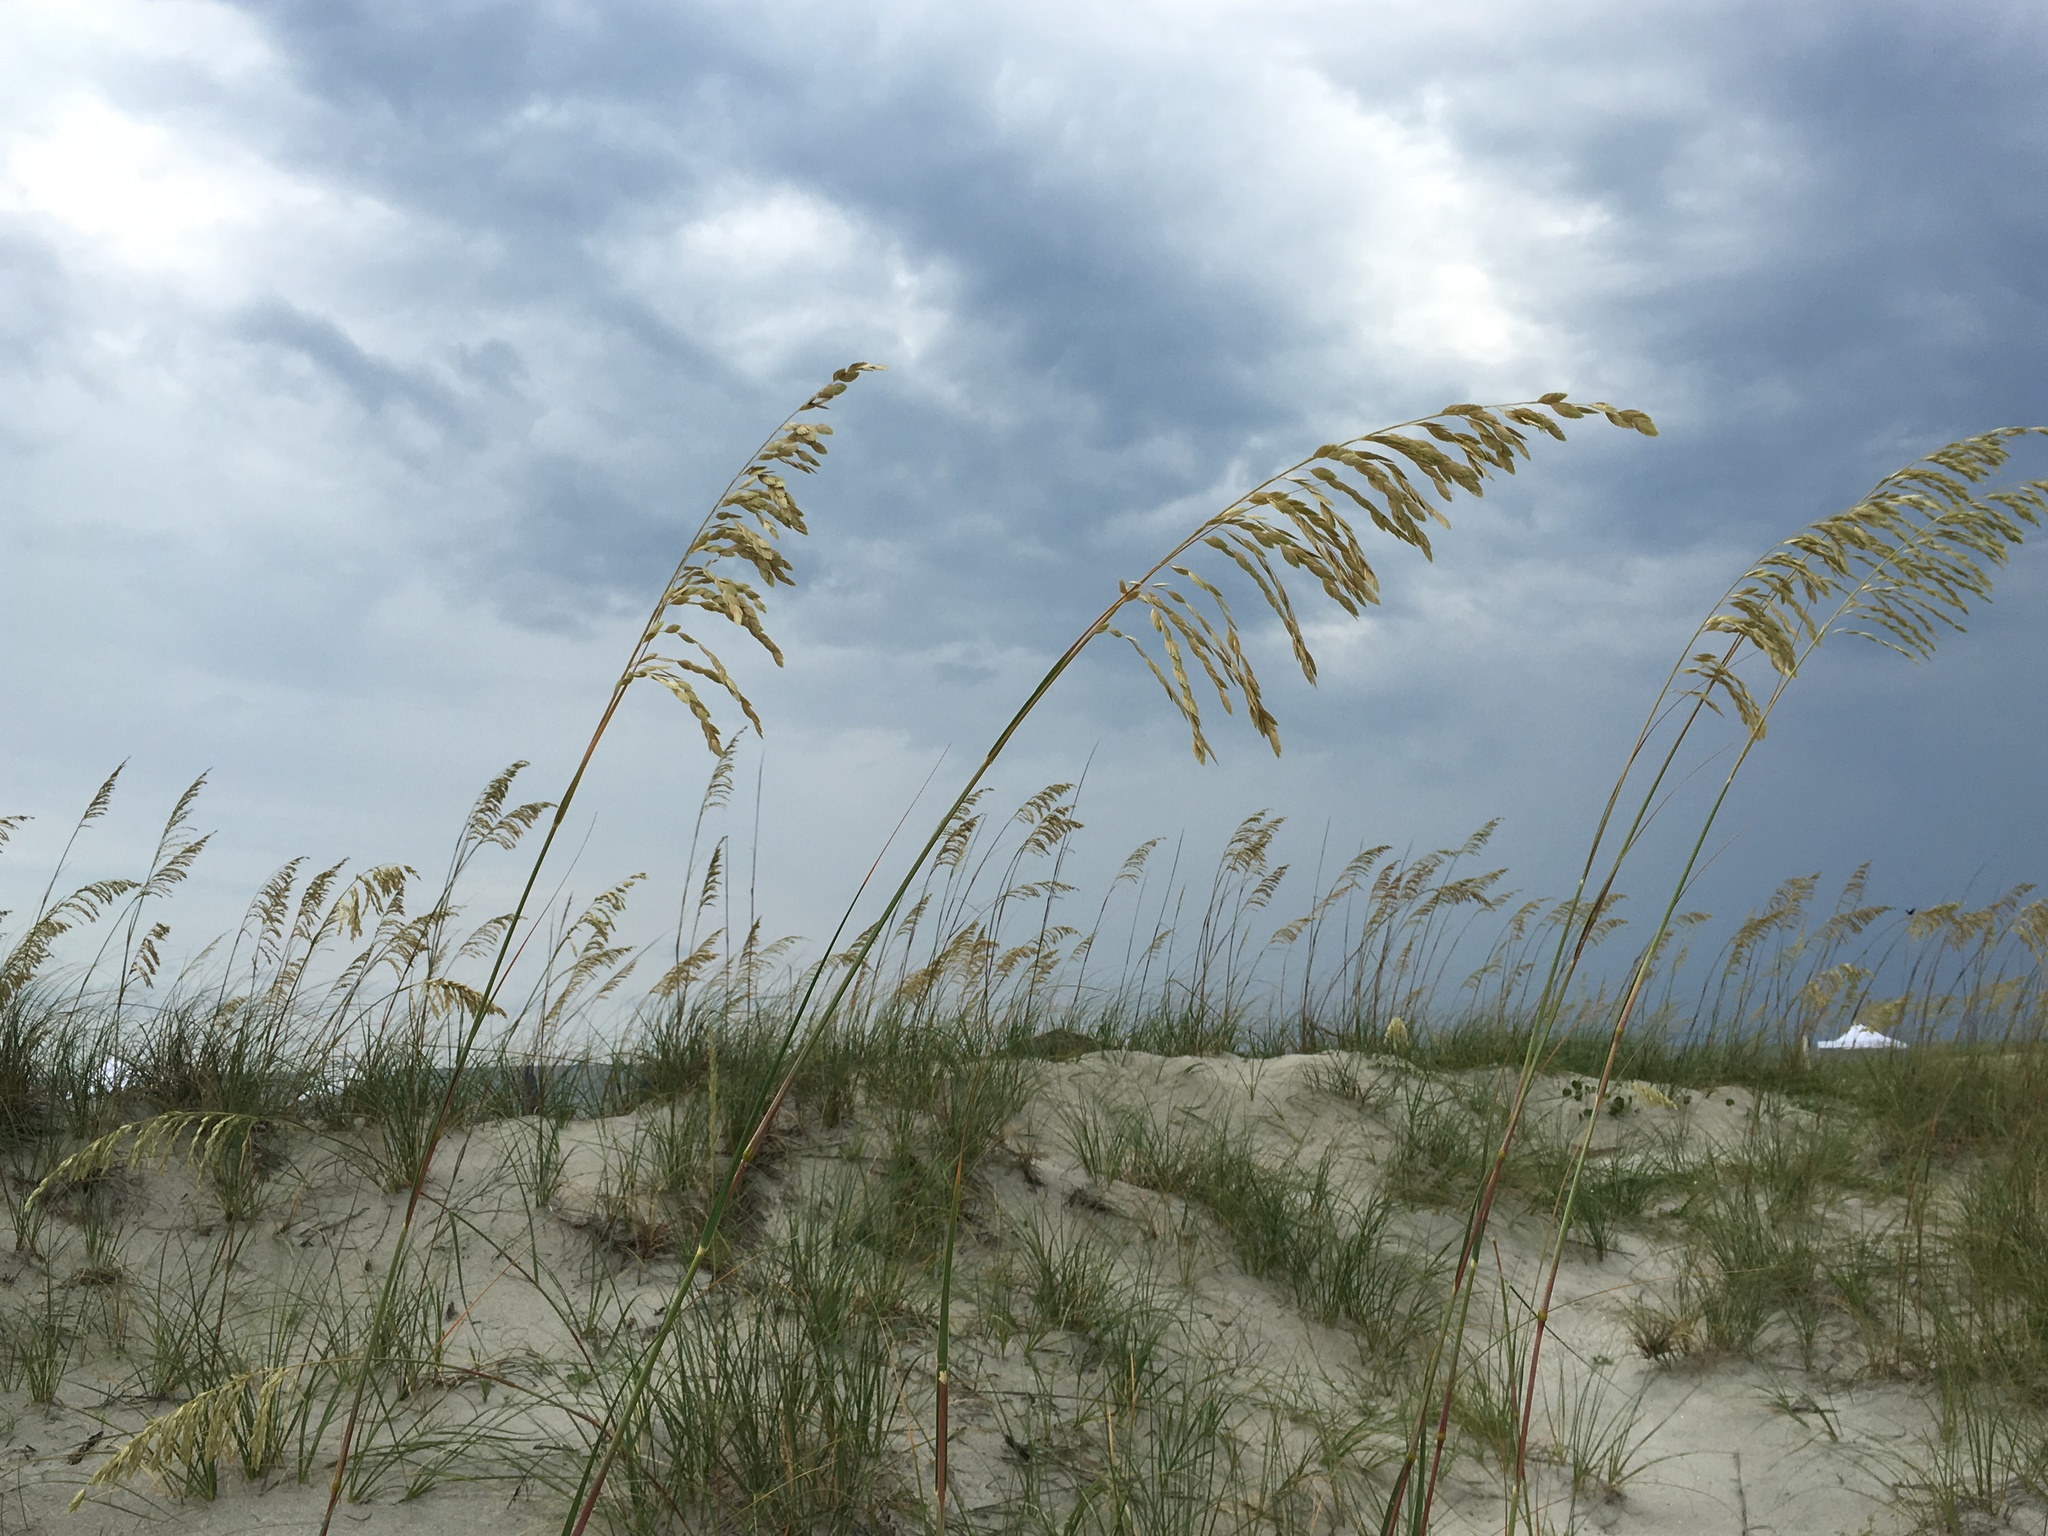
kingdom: Plantae
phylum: Tracheophyta
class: Liliopsida
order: Poales
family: Poaceae
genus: Uniola
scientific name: Uniola paniculata
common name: Seaside-oats
